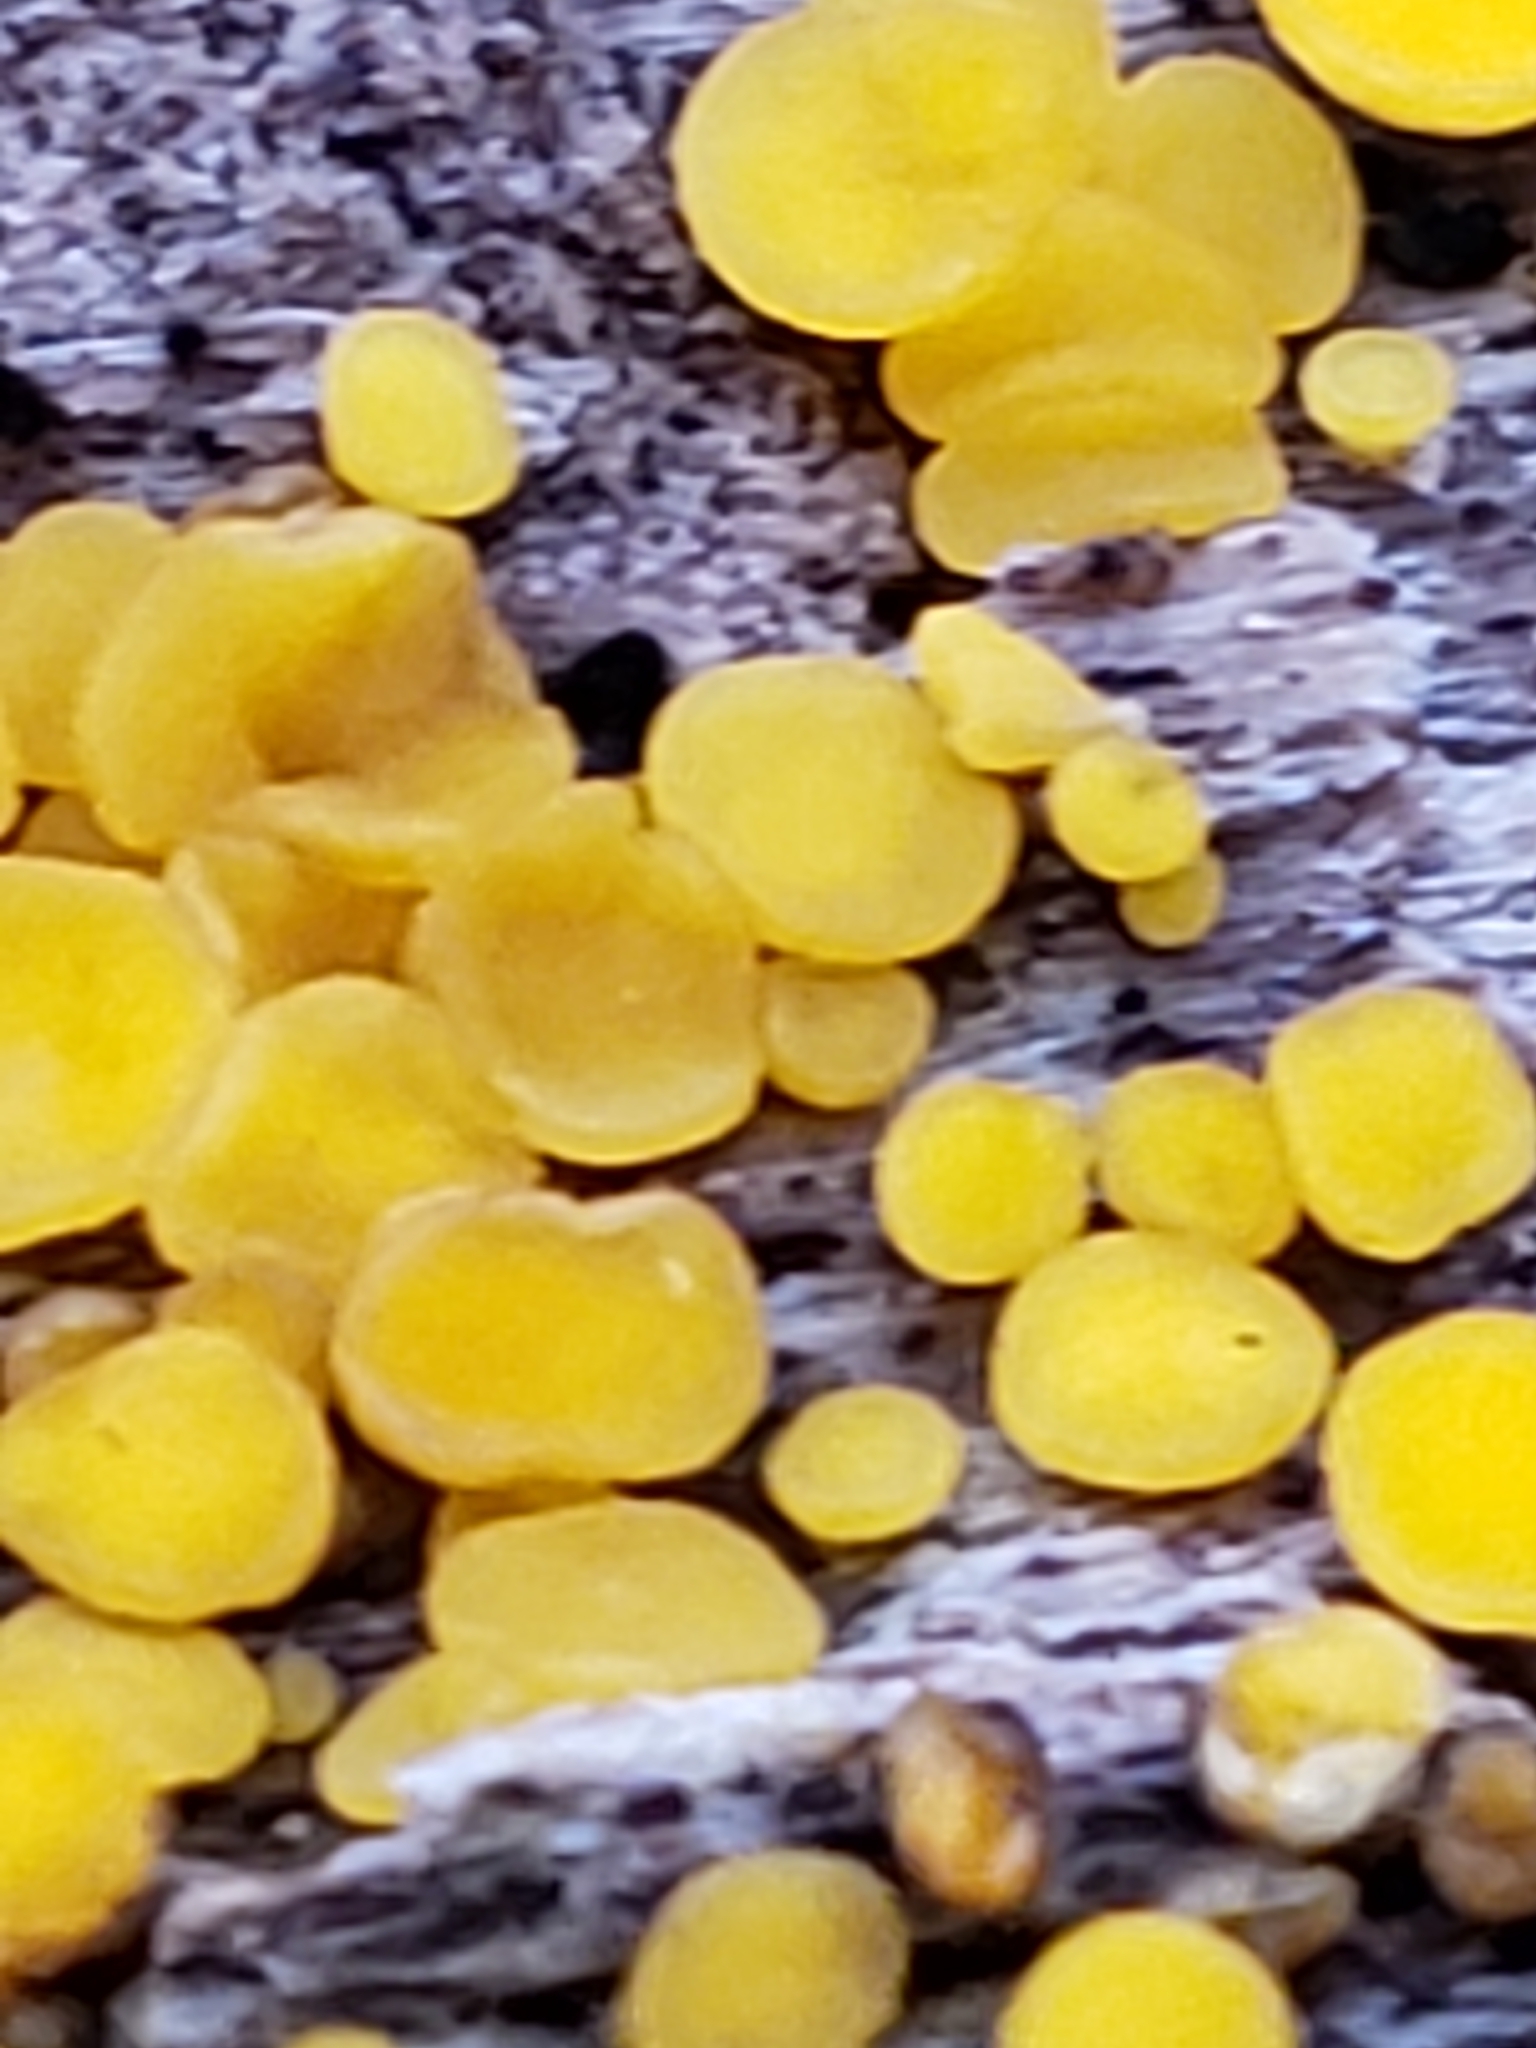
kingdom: Fungi
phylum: Ascomycota
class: Leotiomycetes
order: Helotiales
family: Pezizellaceae
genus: Calycina
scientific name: Calycina citrina
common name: Yellow fairy cups
